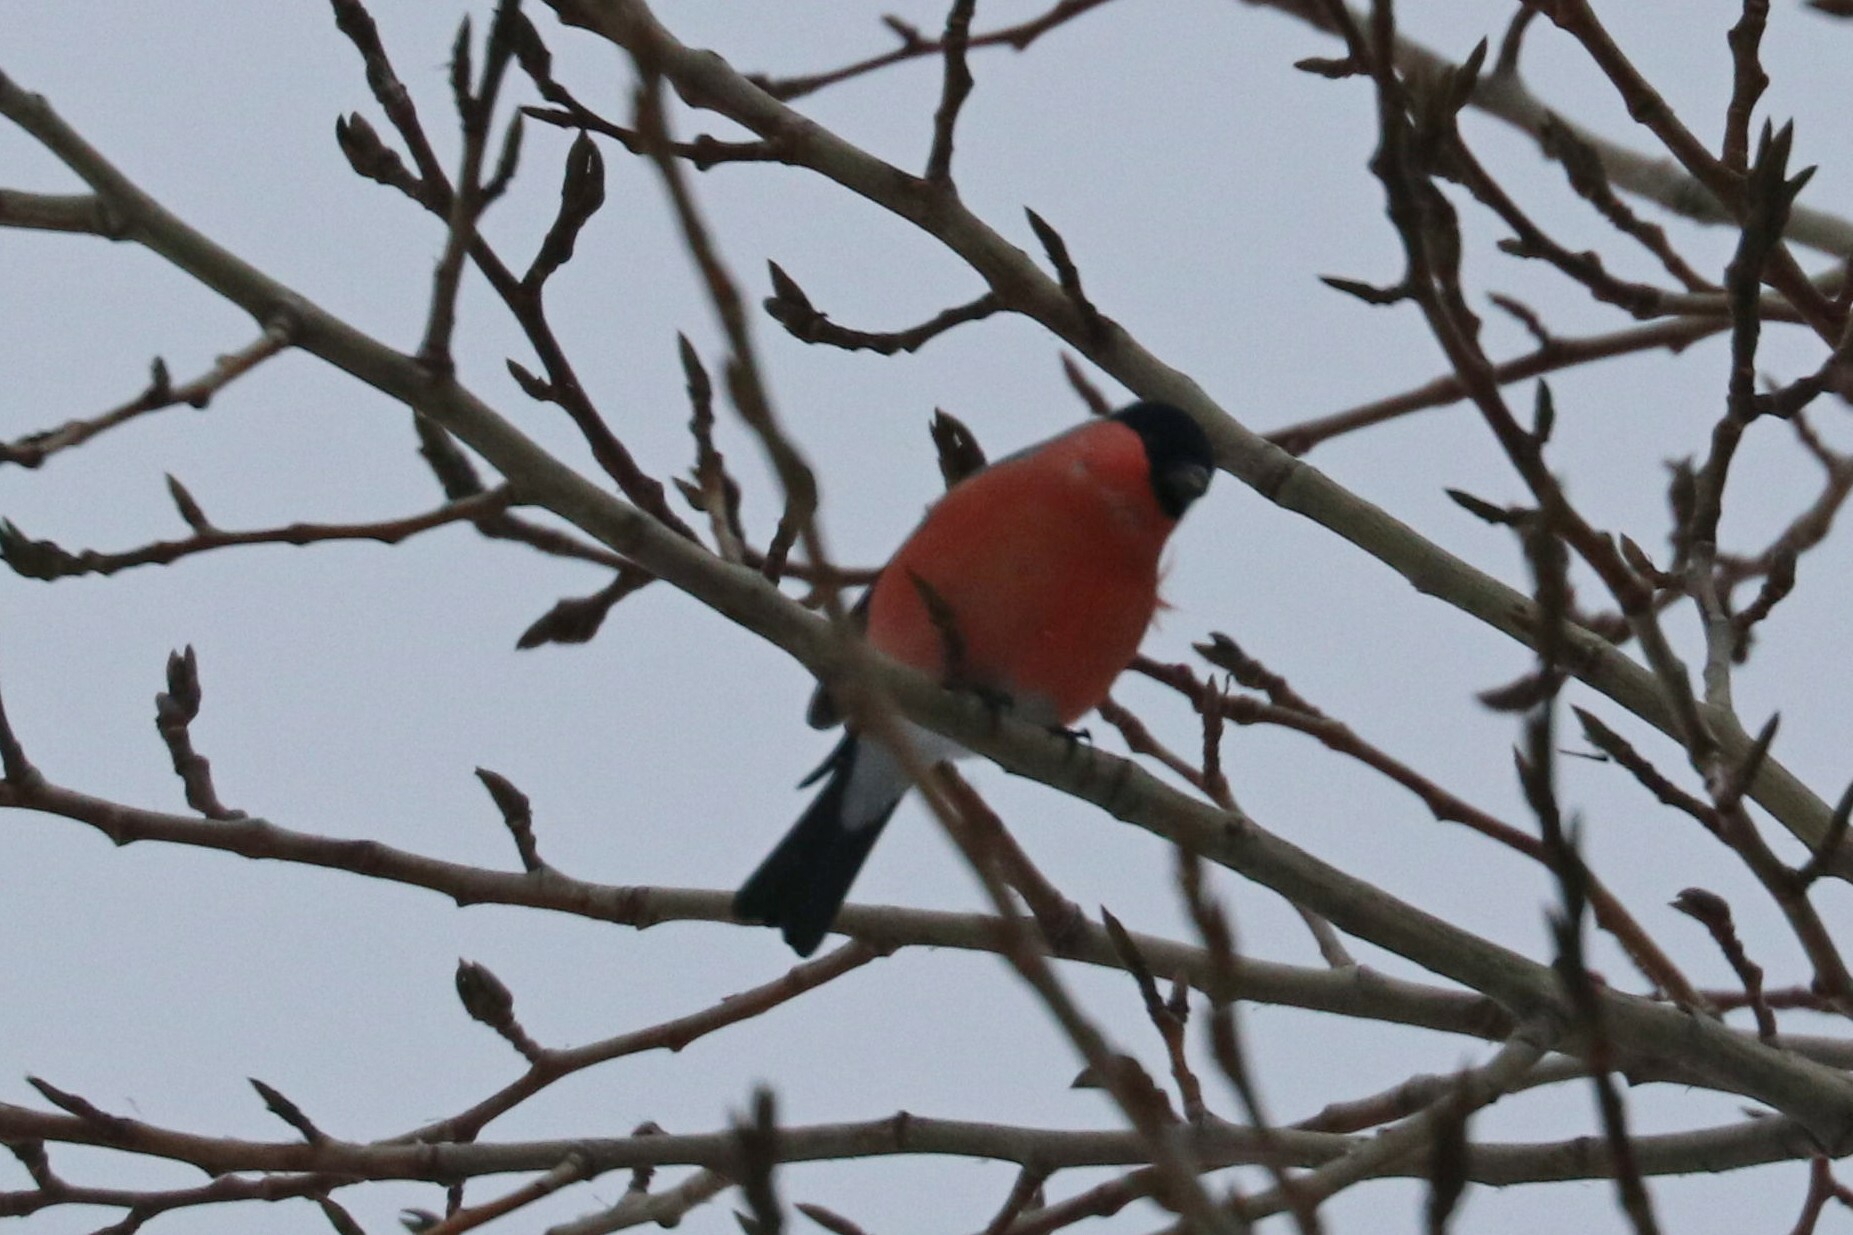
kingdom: Animalia
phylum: Chordata
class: Aves
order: Passeriformes
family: Fringillidae
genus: Pyrrhula
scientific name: Pyrrhula pyrrhula
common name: Eurasian bullfinch
